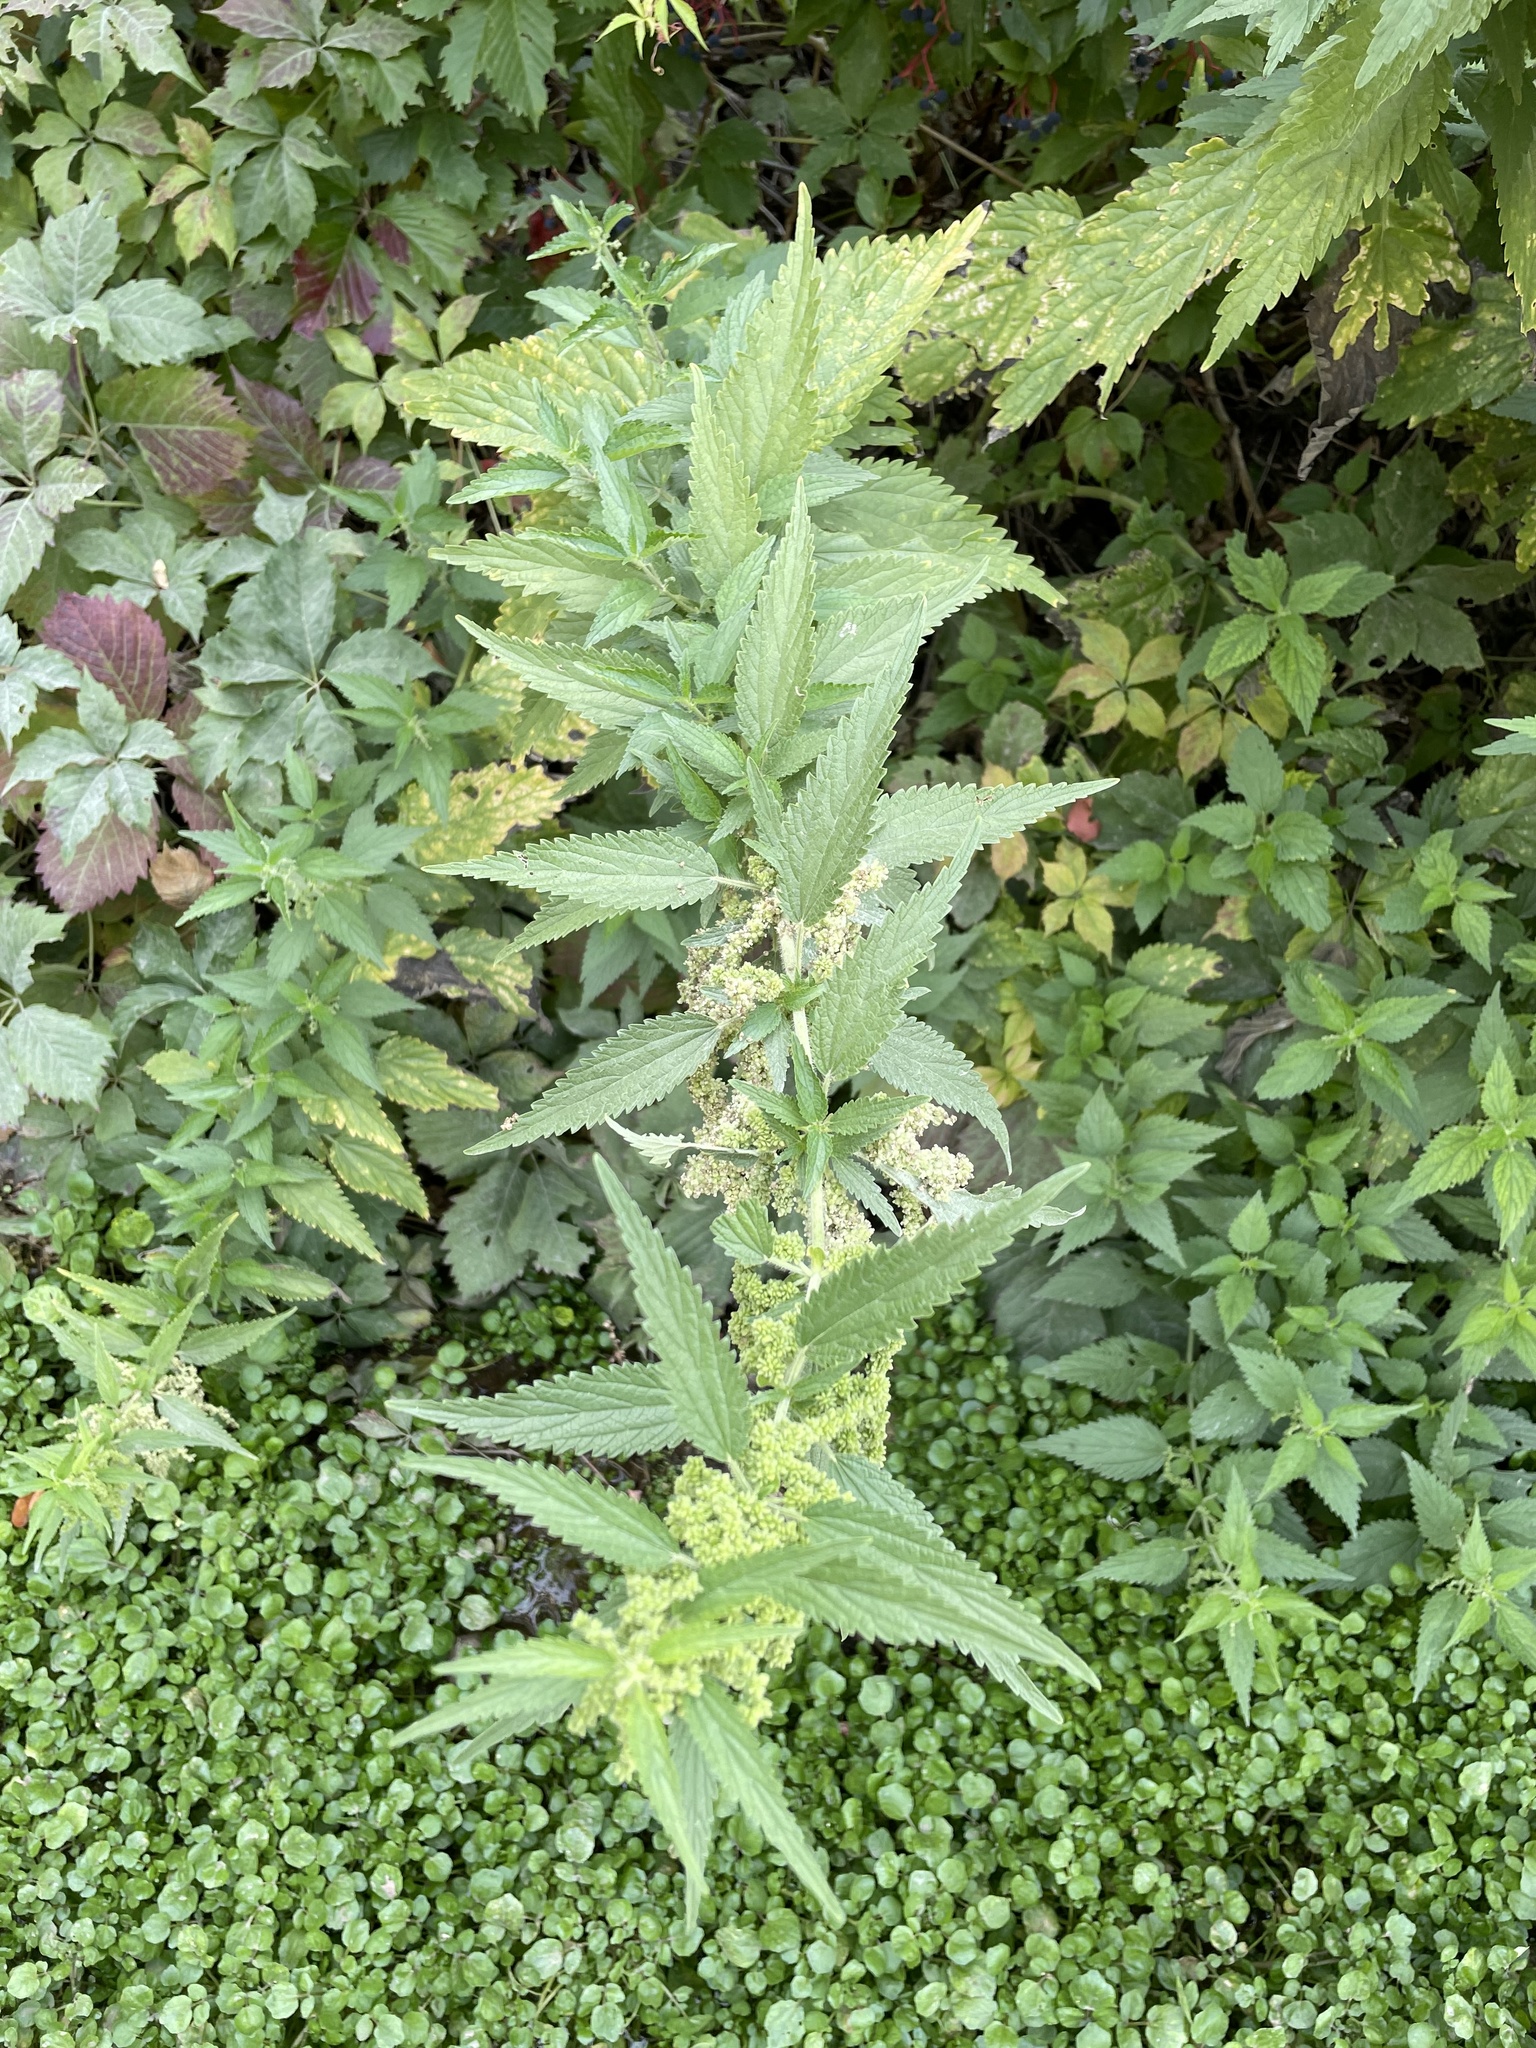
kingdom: Plantae
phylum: Tracheophyta
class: Magnoliopsida
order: Rosales
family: Urticaceae
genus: Urtica
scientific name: Urtica dioica
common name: Common nettle
